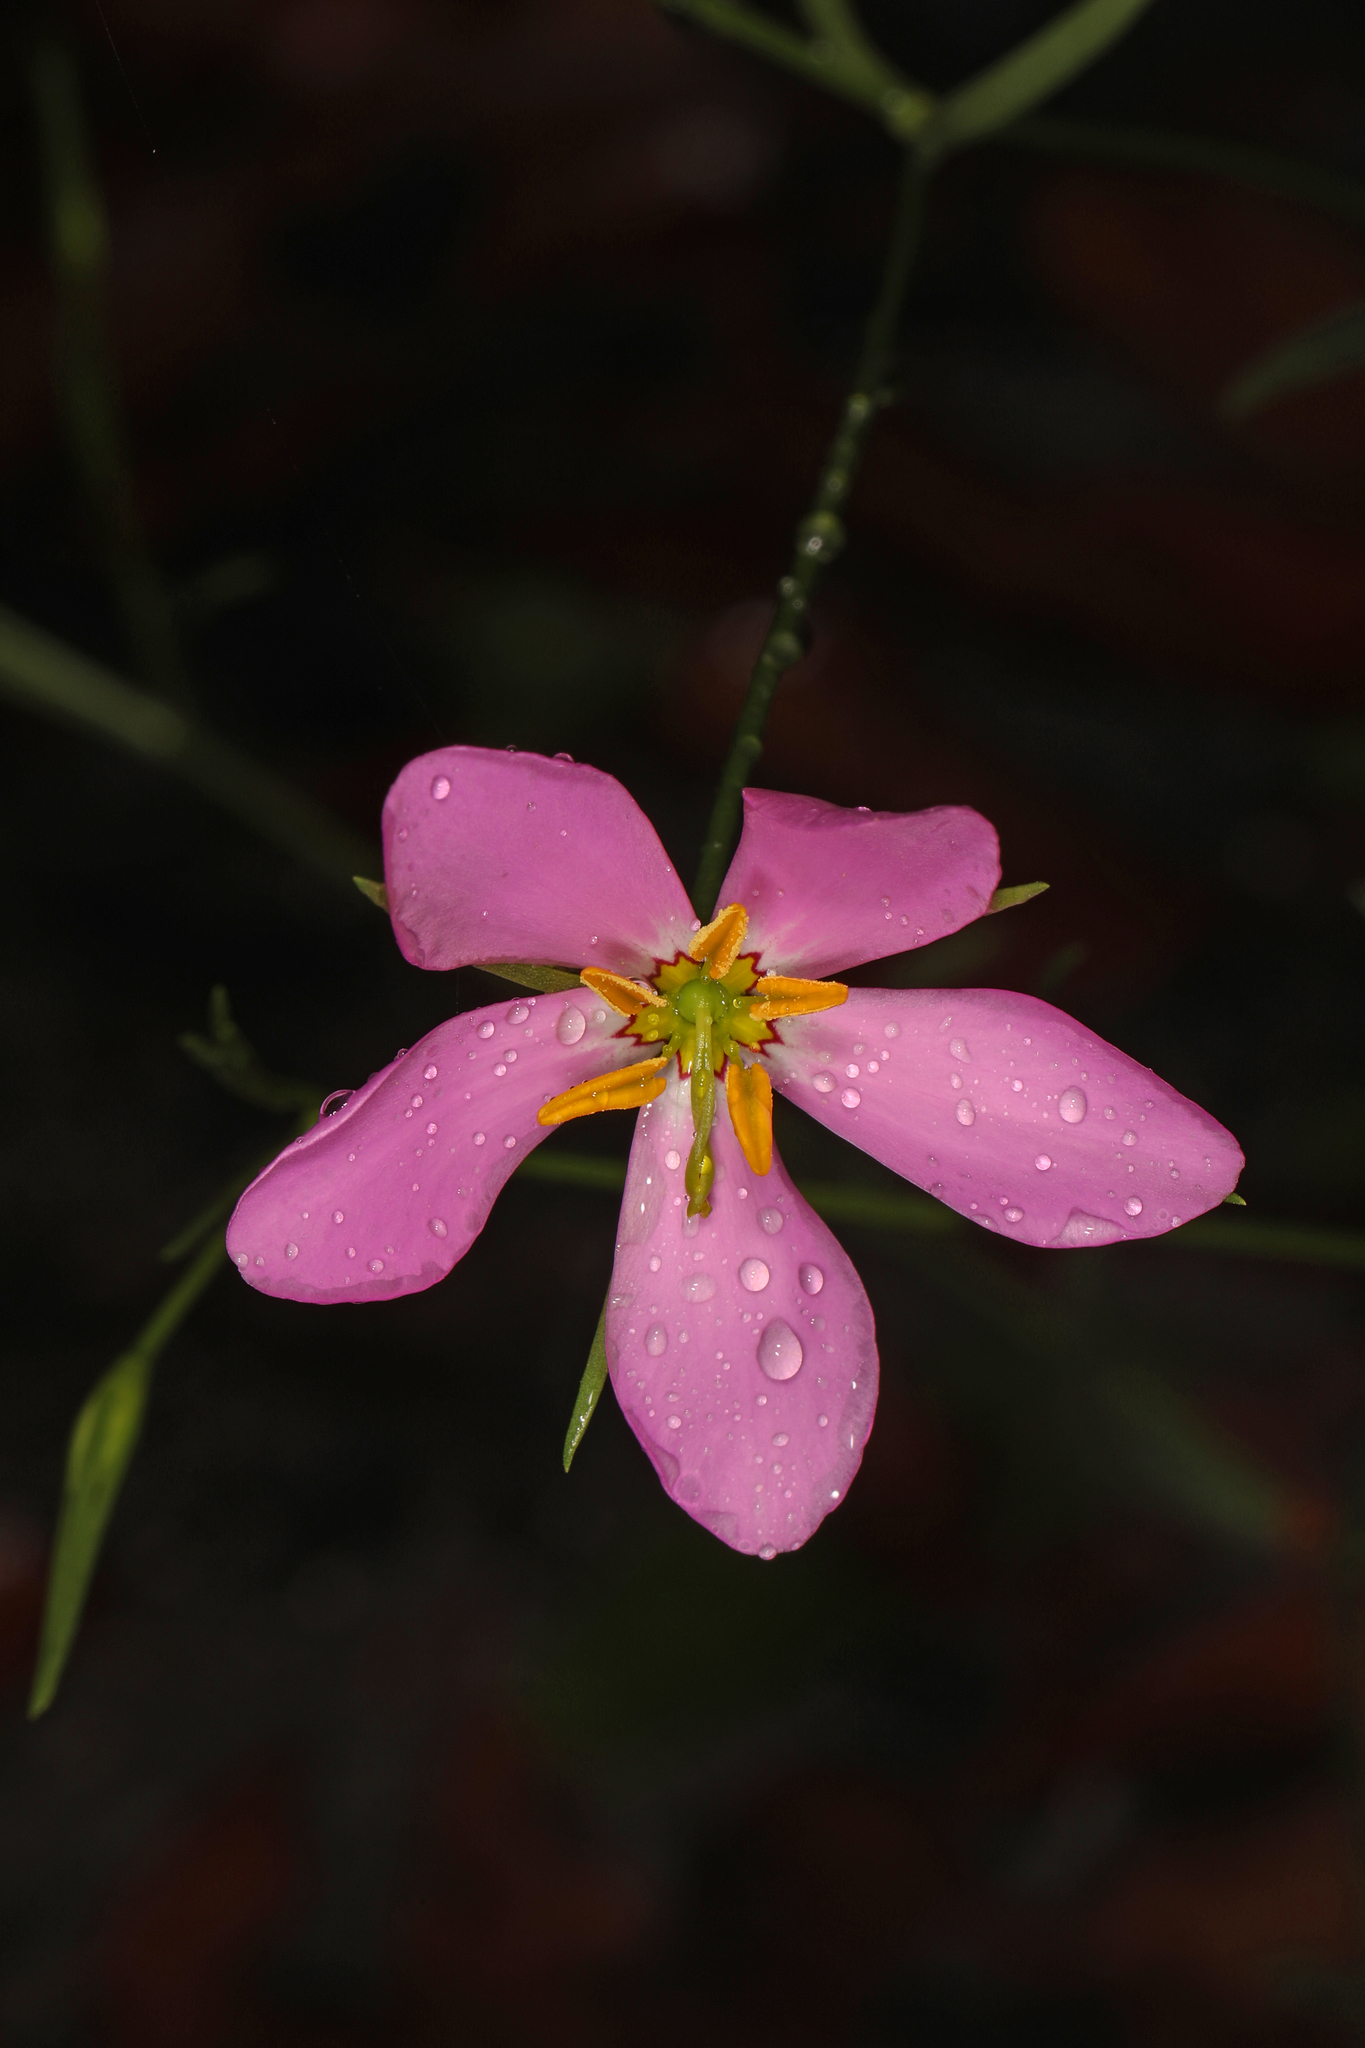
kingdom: Plantae
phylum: Tracheophyta
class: Magnoliopsida
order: Gentianales
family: Gentianaceae
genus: Sabatia
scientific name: Sabatia stellaris
